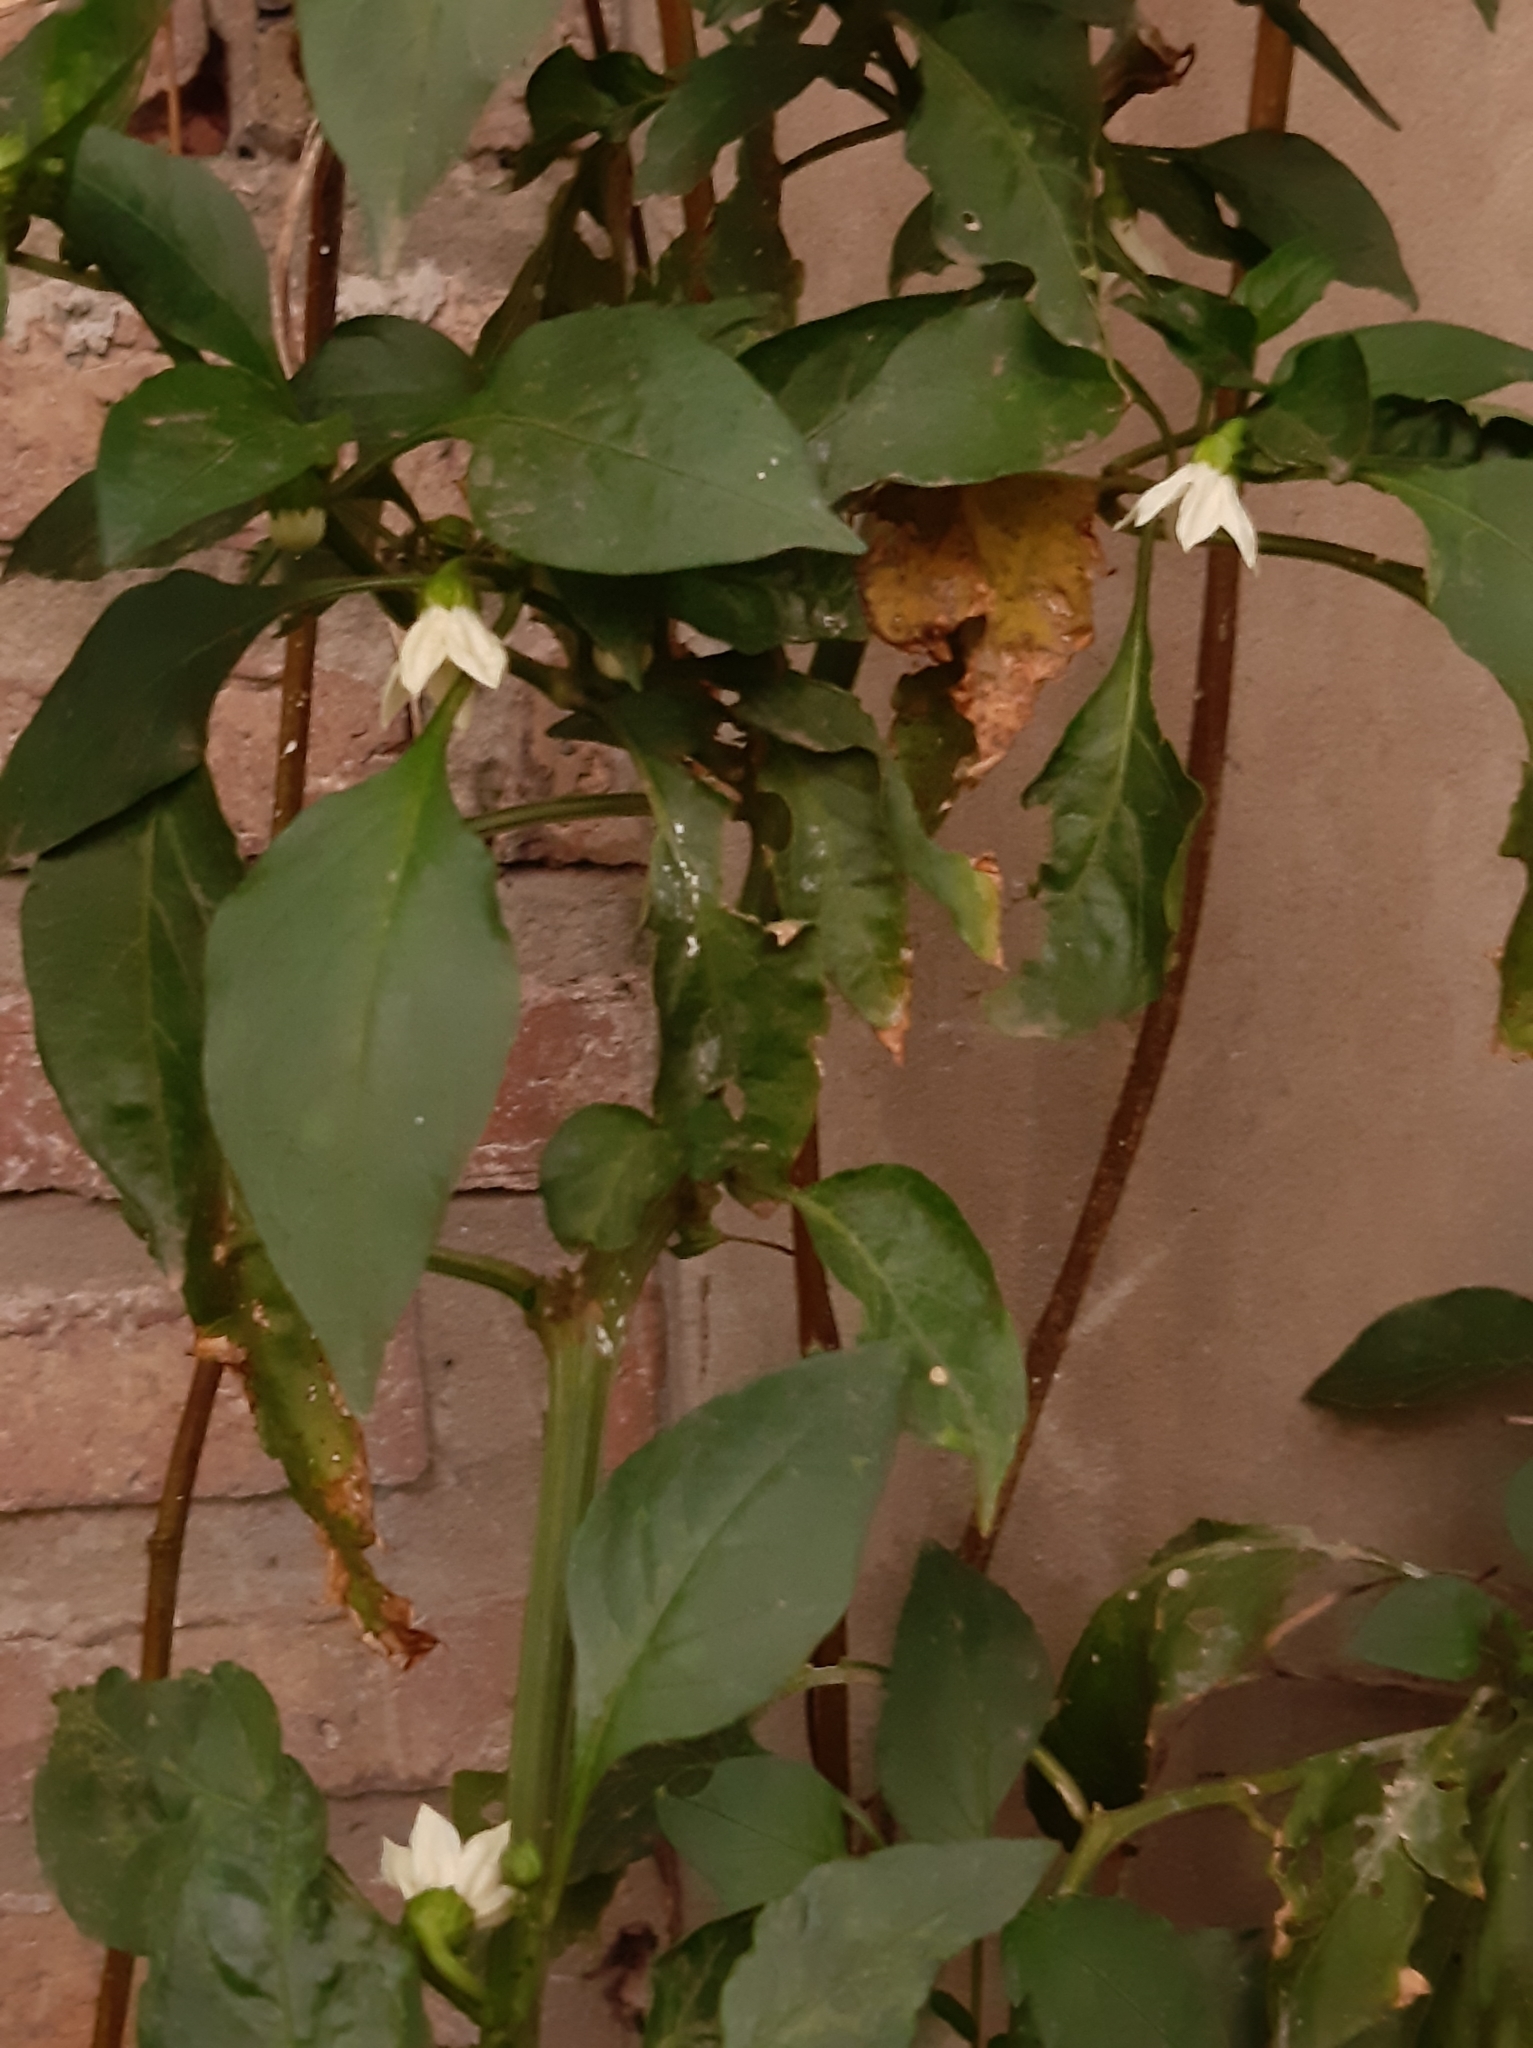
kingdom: Plantae
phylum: Tracheophyta
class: Magnoliopsida
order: Solanales
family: Solanaceae
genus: Capsicum
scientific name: Capsicum annuum
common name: Sweet pepper
